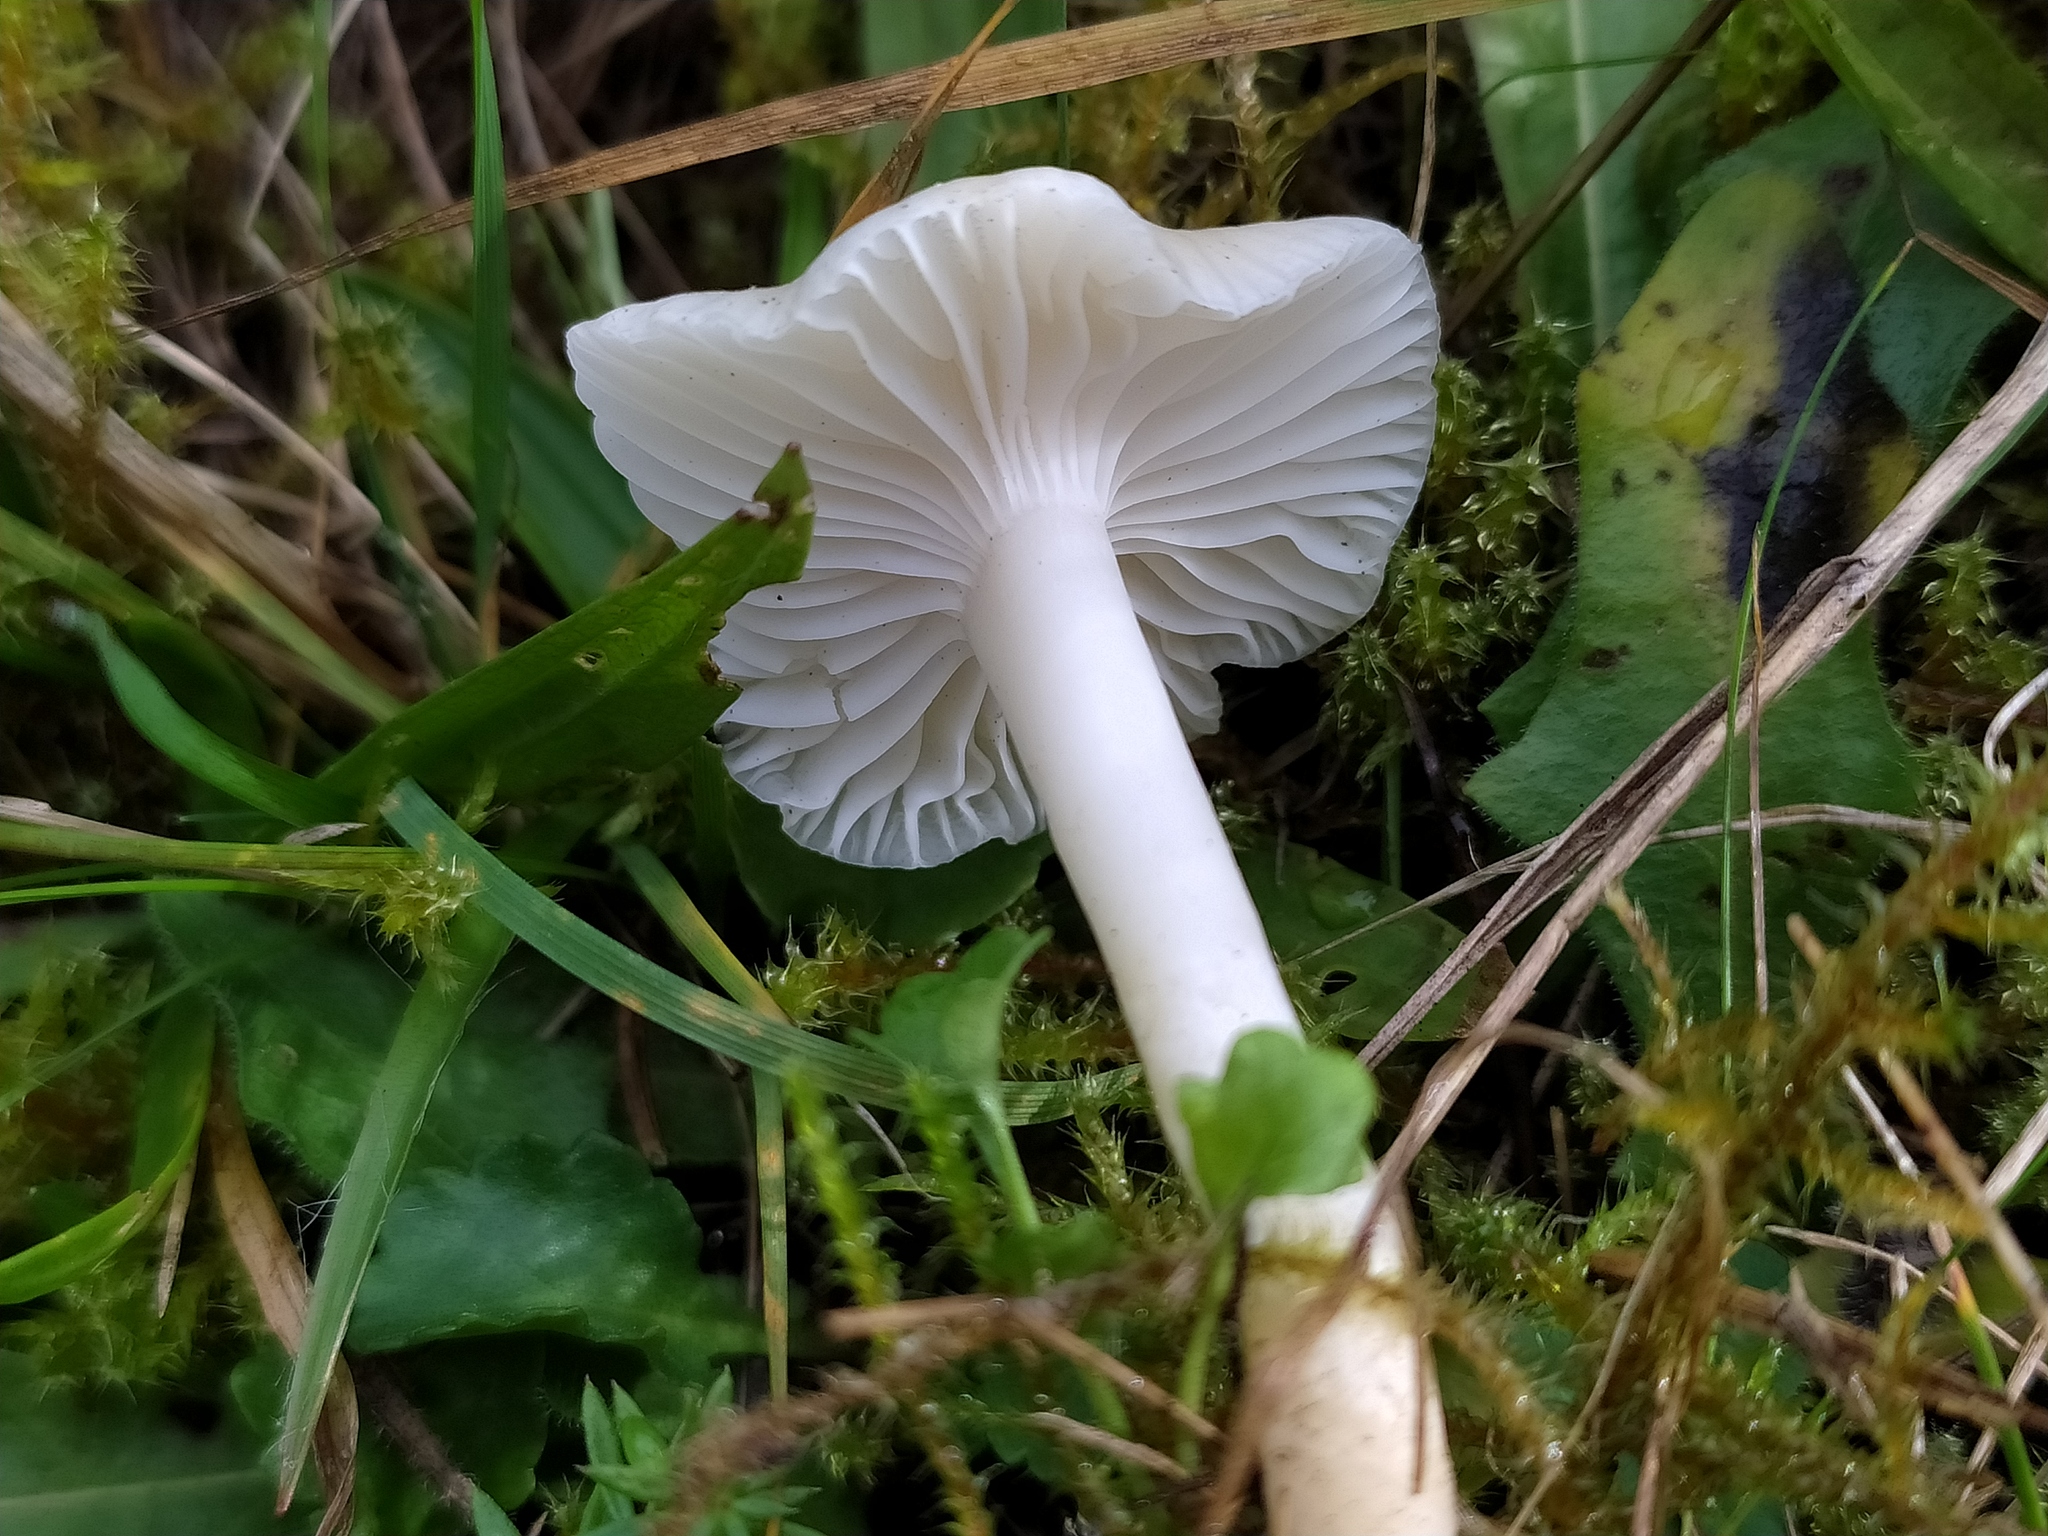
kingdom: Fungi
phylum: Basidiomycota
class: Agaricomycetes
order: Agaricales
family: Hygrophoraceae
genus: Cuphophyllus
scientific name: Cuphophyllus virgineus
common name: Snowy waxcap
